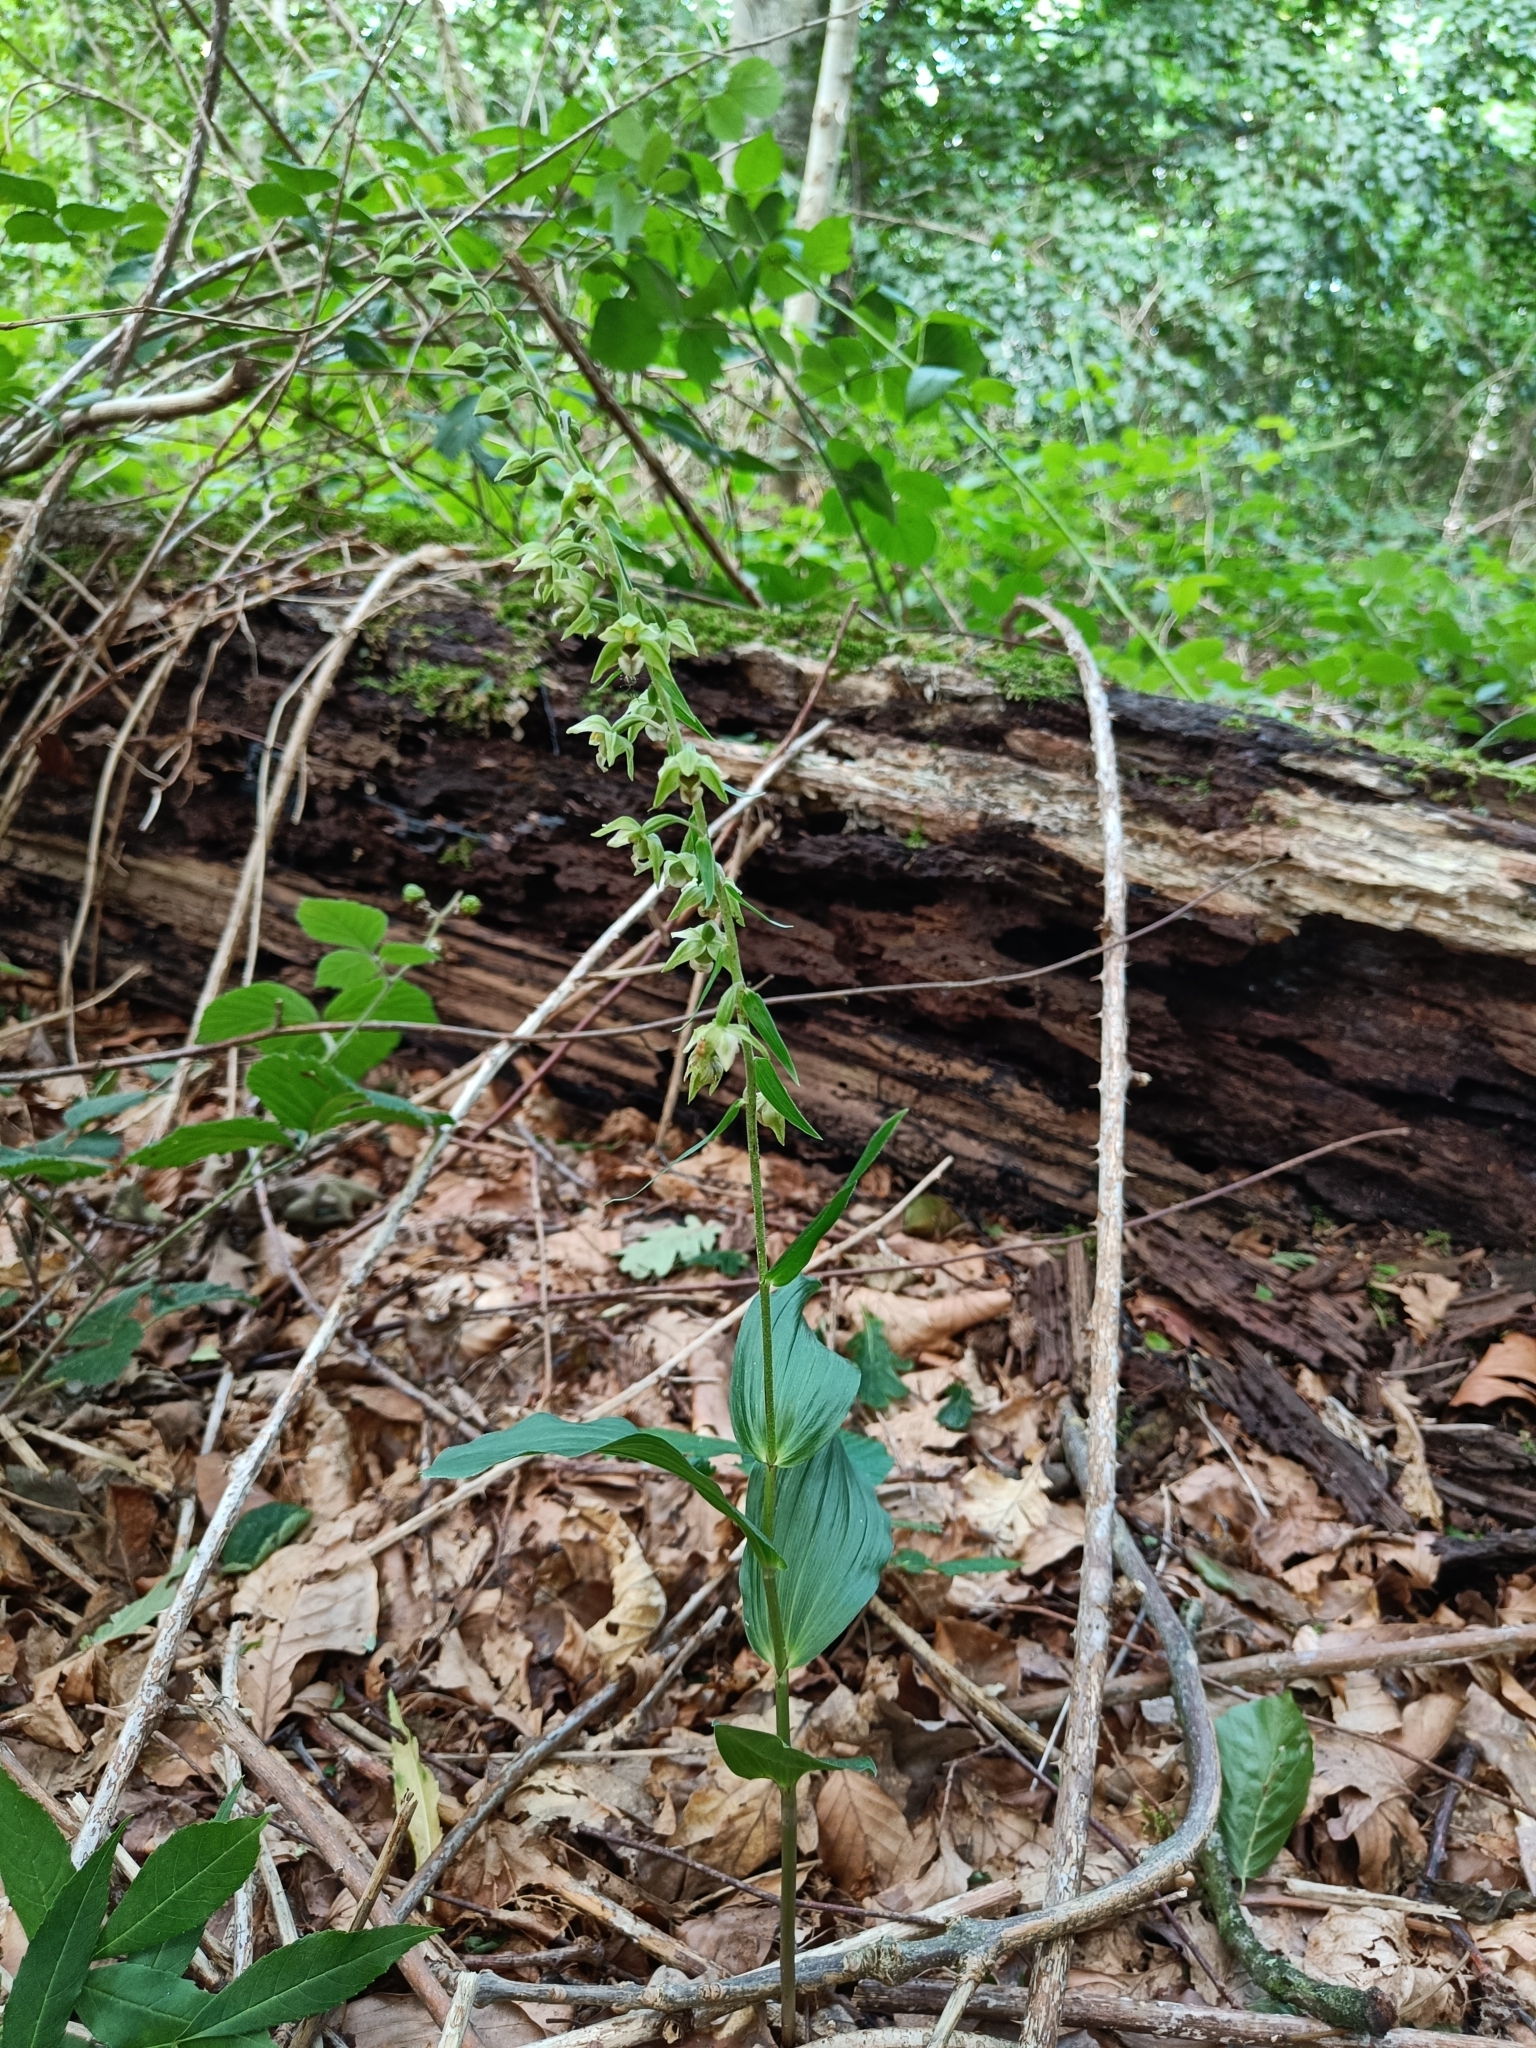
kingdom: Plantae
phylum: Tracheophyta
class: Liliopsida
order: Asparagales
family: Orchidaceae
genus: Epipactis
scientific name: Epipactis helleborine
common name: Broad-leaved helleborine
